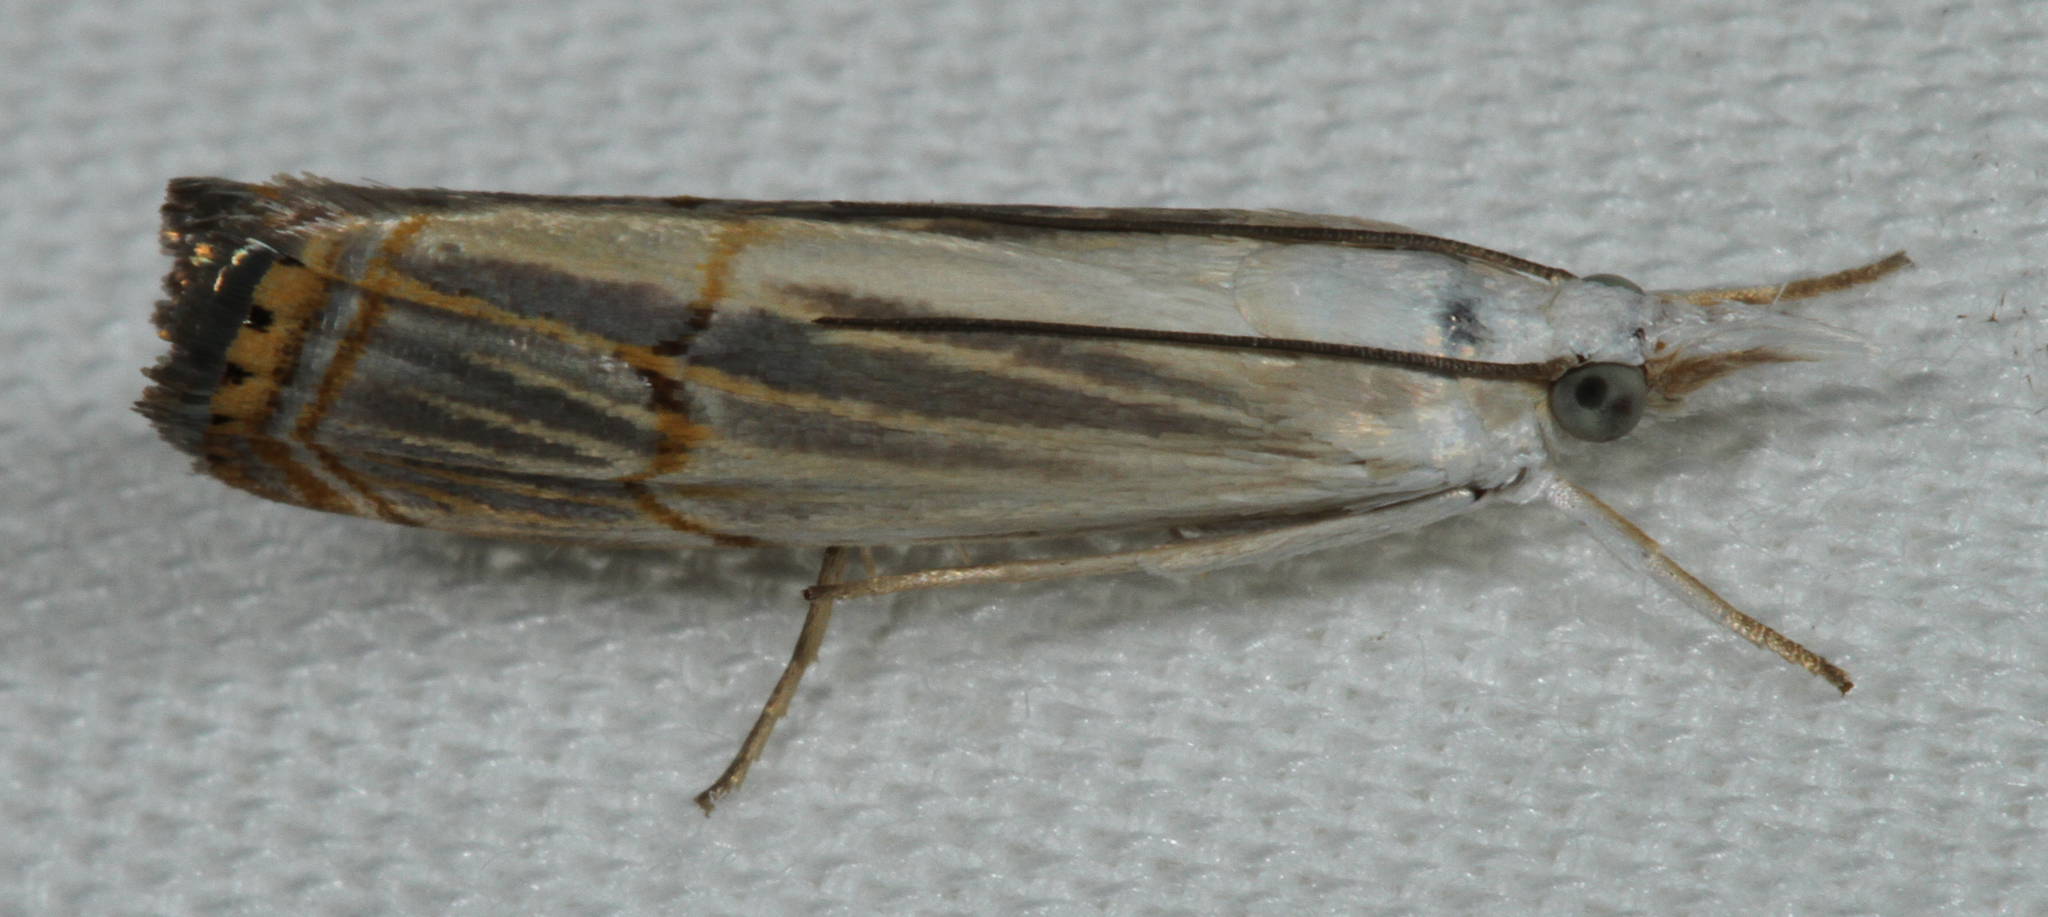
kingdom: Animalia
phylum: Arthropoda
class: Insecta
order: Lepidoptera
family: Crambidae
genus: Parapediasia
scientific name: Parapediasia decorellus
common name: Graceful grass-veneer
